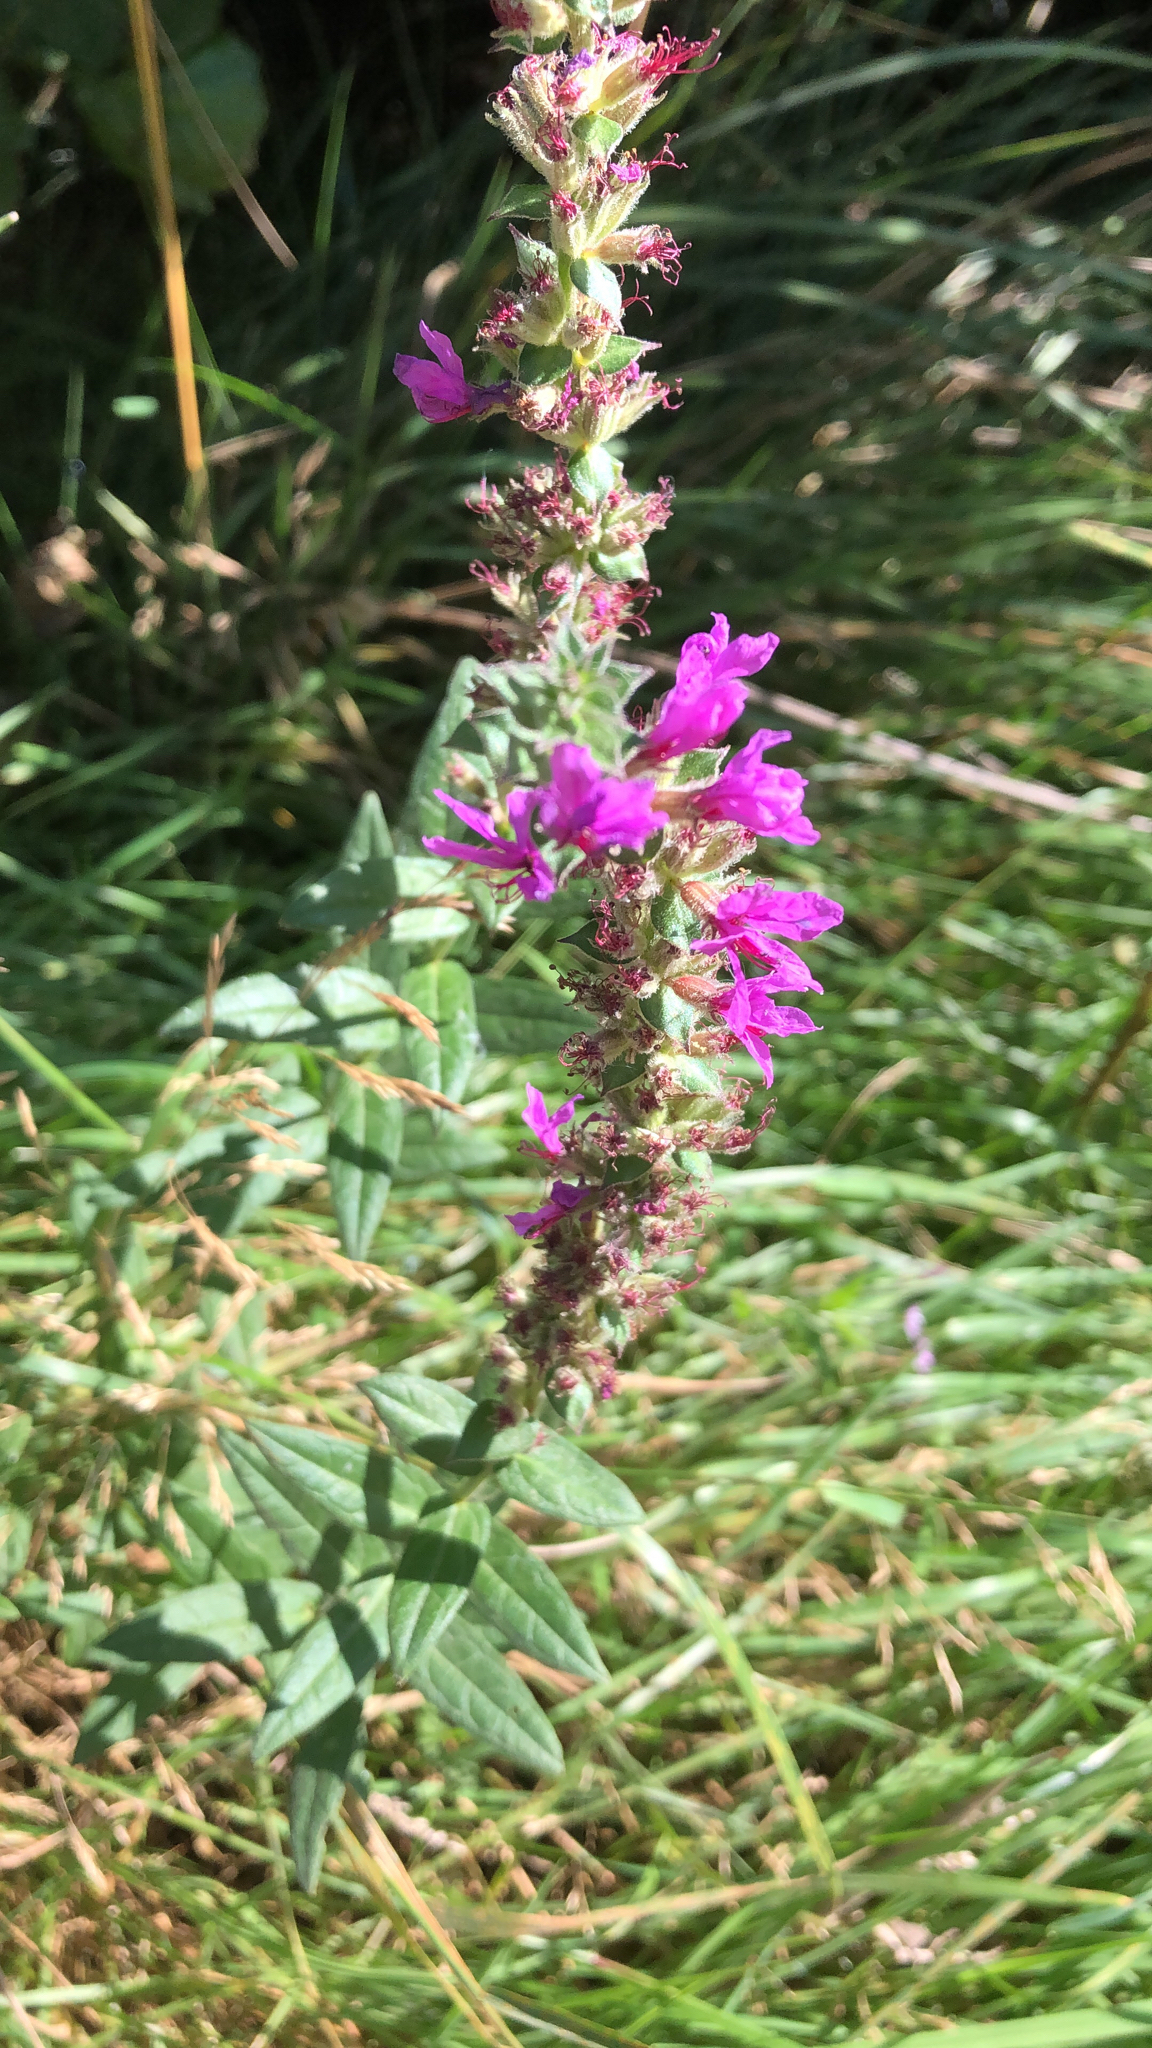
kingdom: Plantae
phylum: Tracheophyta
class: Magnoliopsida
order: Myrtales
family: Lythraceae
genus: Lythrum
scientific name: Lythrum salicaria
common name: Purple loosestrife
